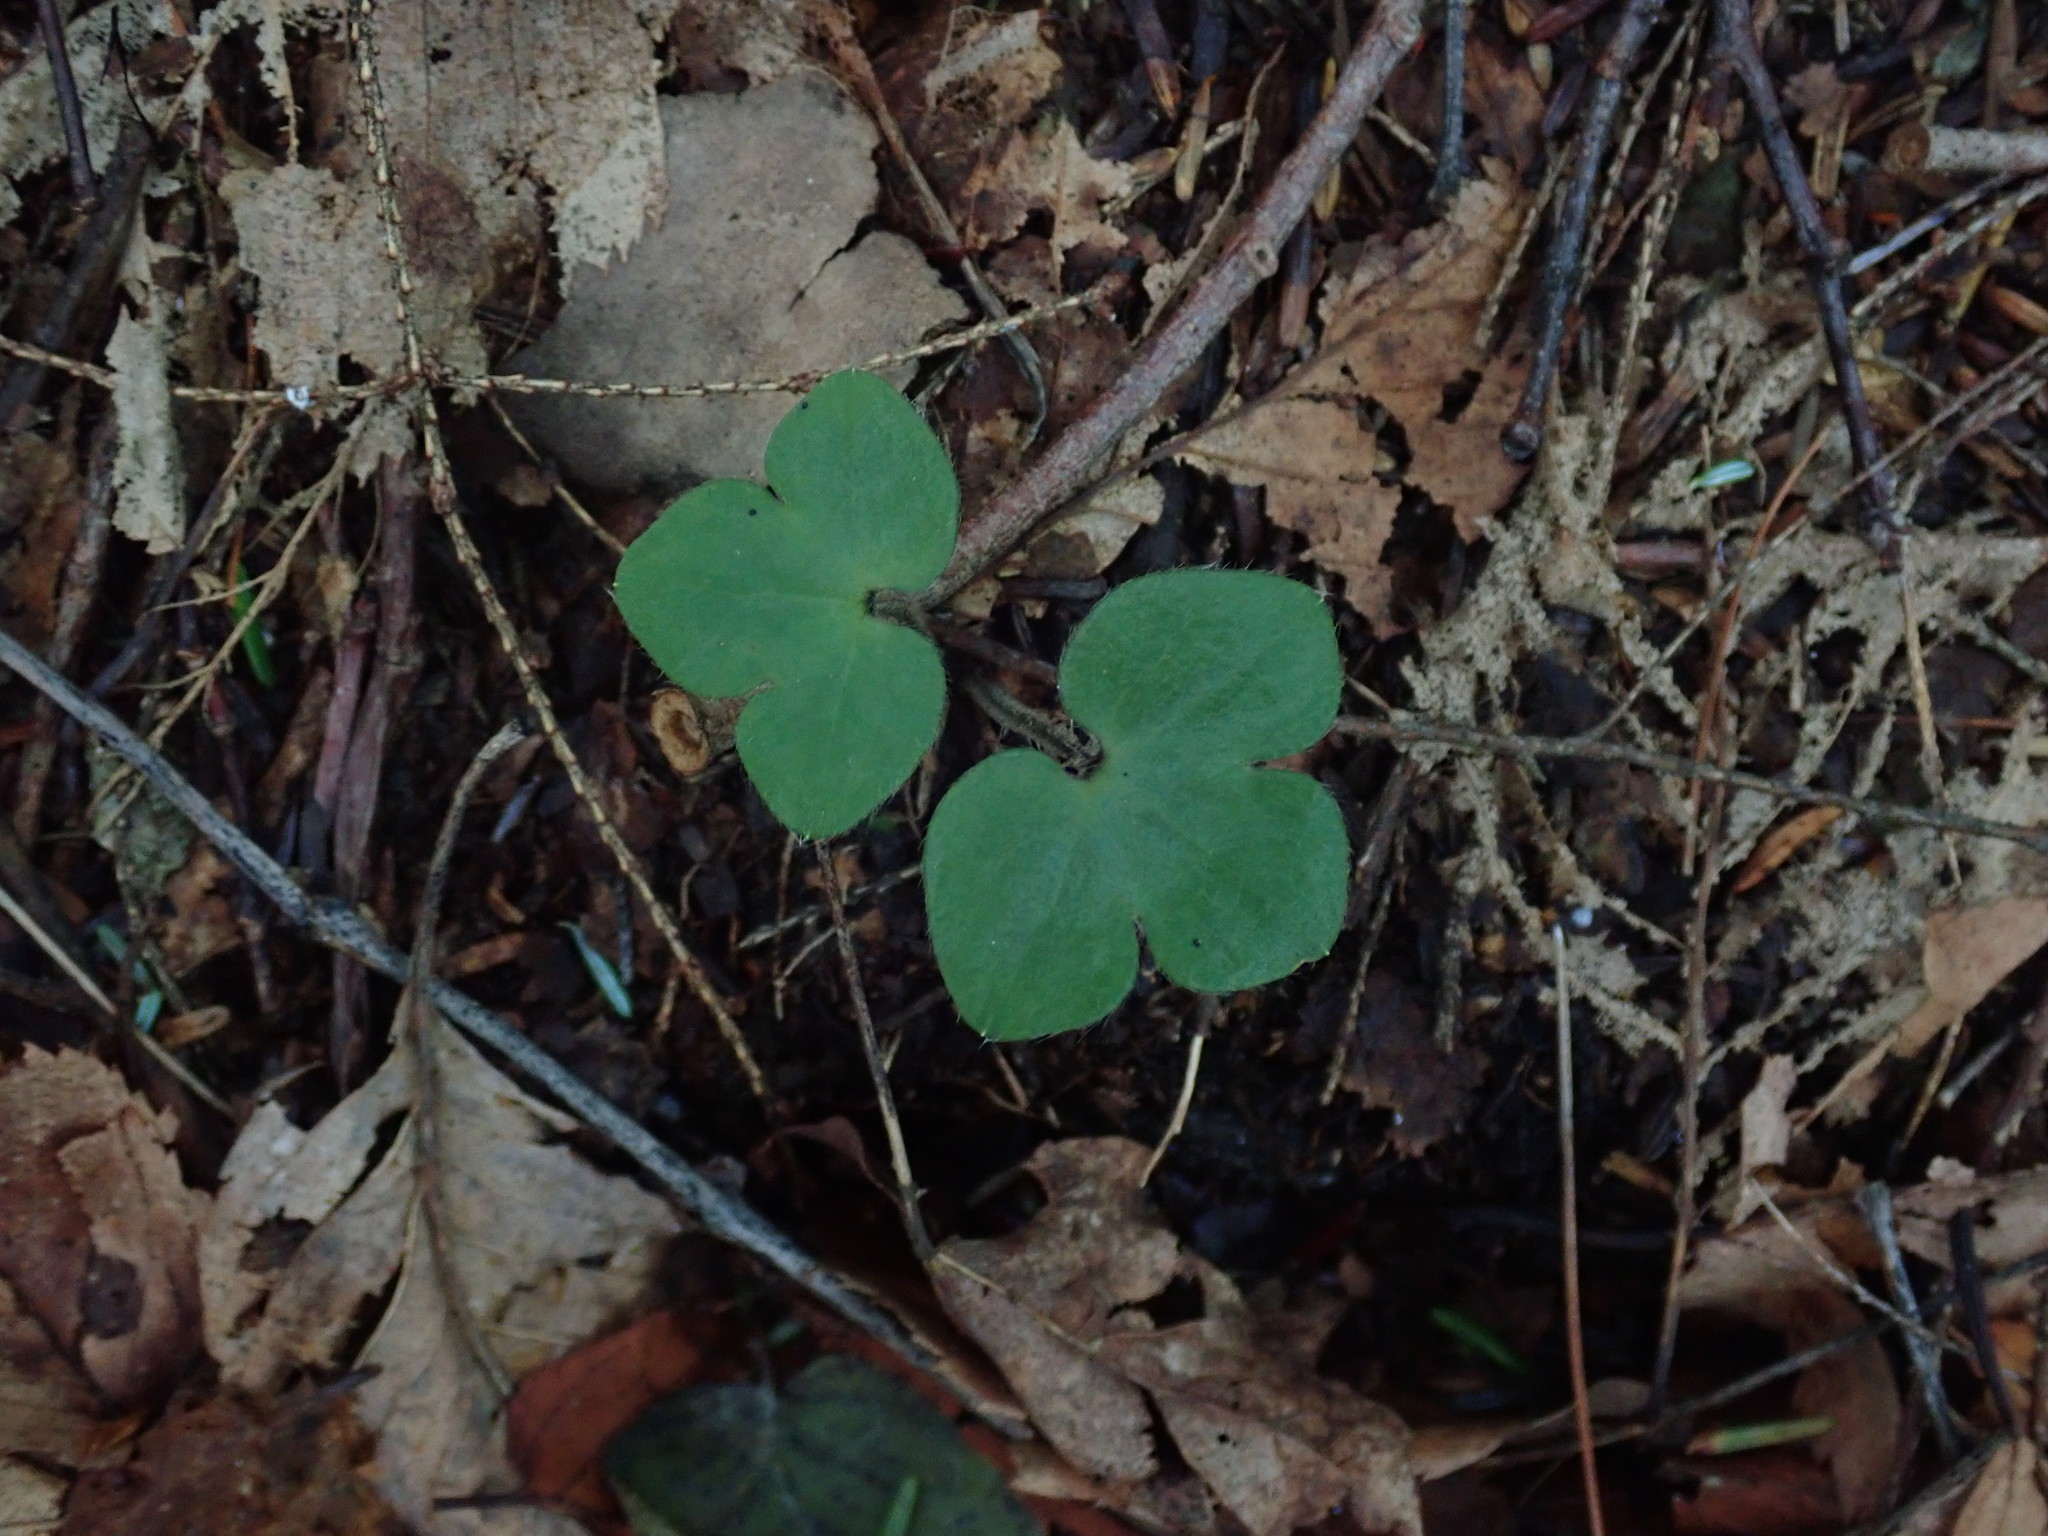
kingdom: Plantae
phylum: Tracheophyta
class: Magnoliopsida
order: Ranunculales
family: Ranunculaceae
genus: Hepatica
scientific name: Hepatica americana
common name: American hepatica
